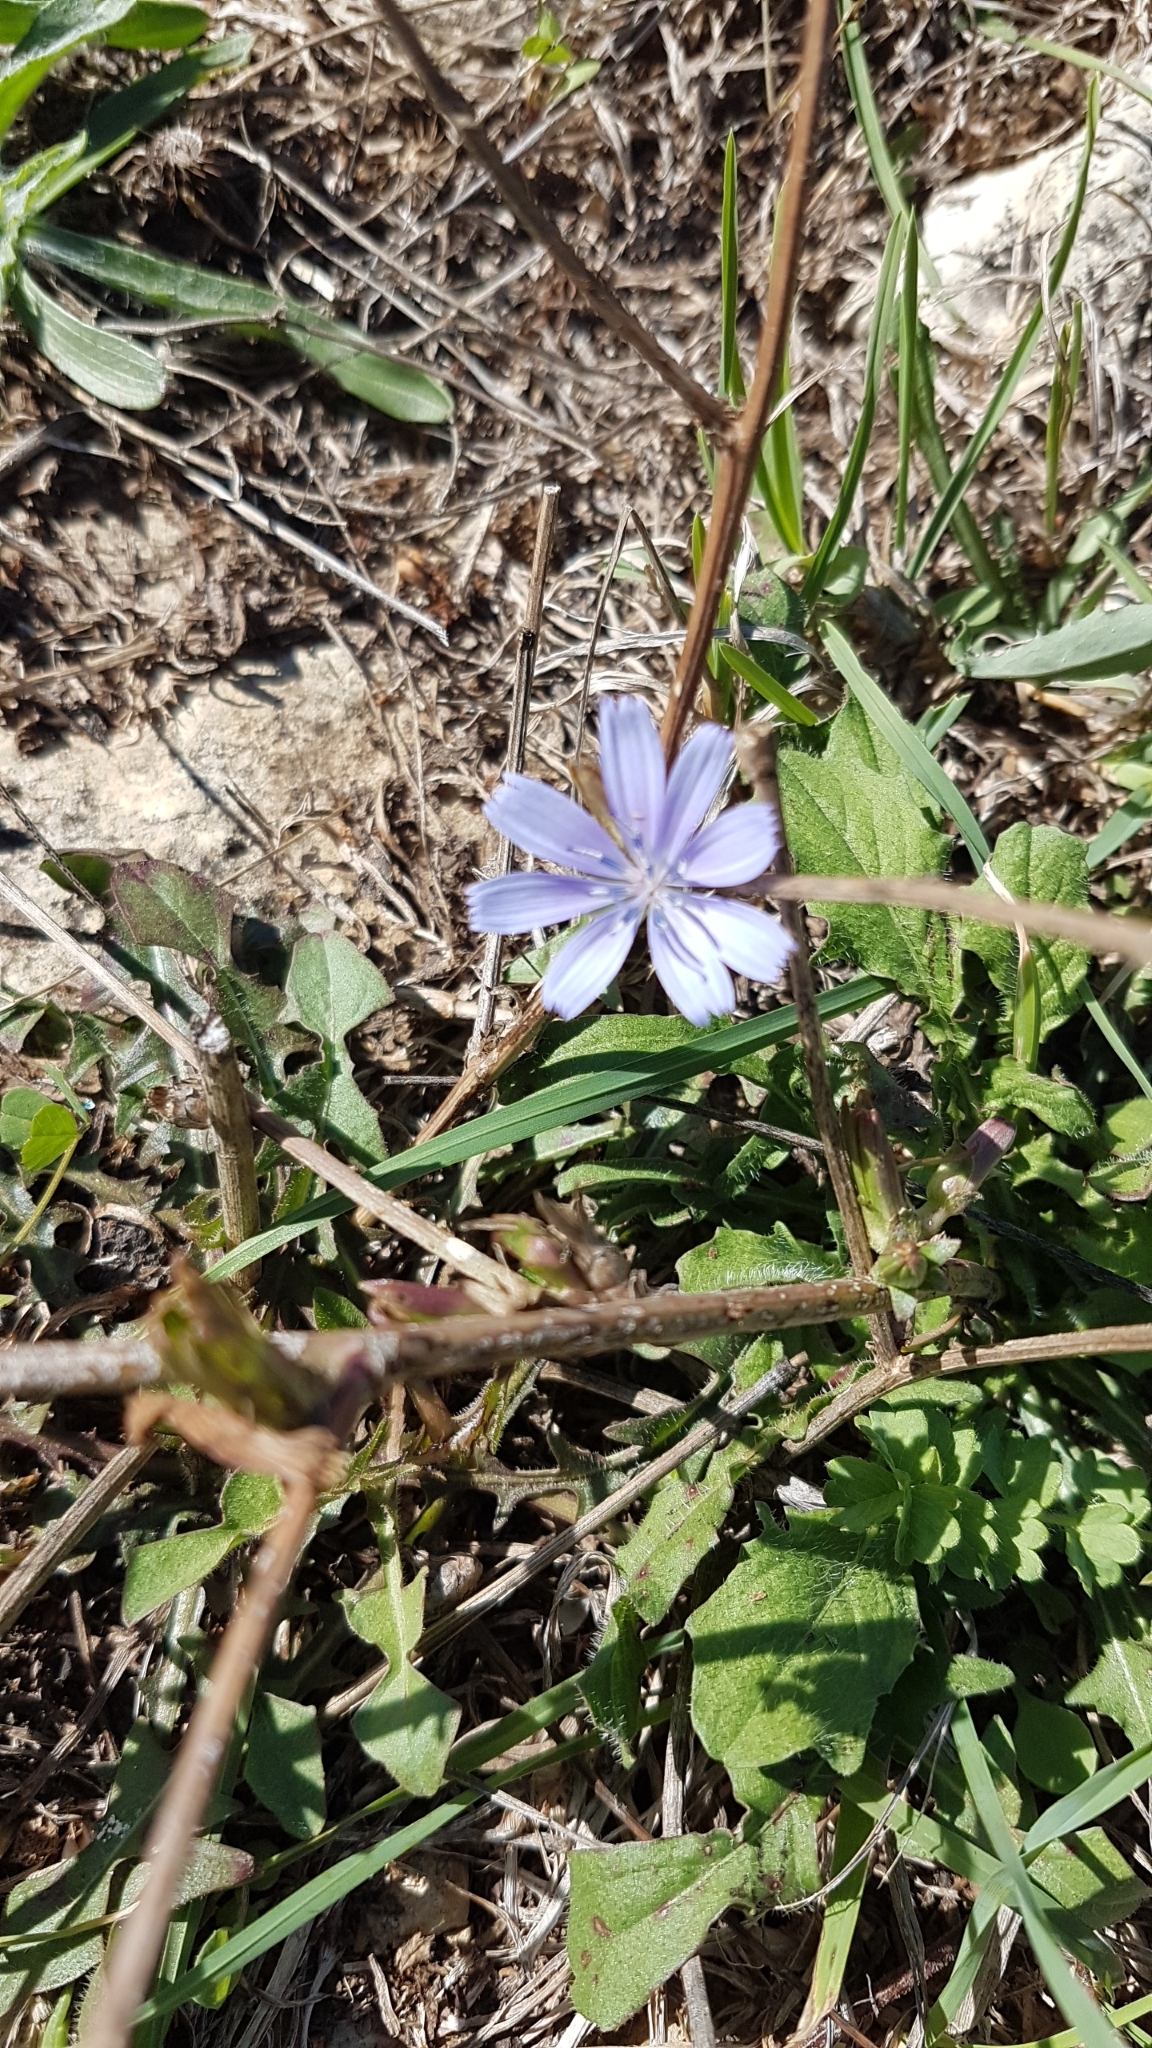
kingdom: Plantae
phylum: Tracheophyta
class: Magnoliopsida
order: Asterales
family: Asteraceae
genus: Cichorium
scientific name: Cichorium intybus
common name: Chicory
